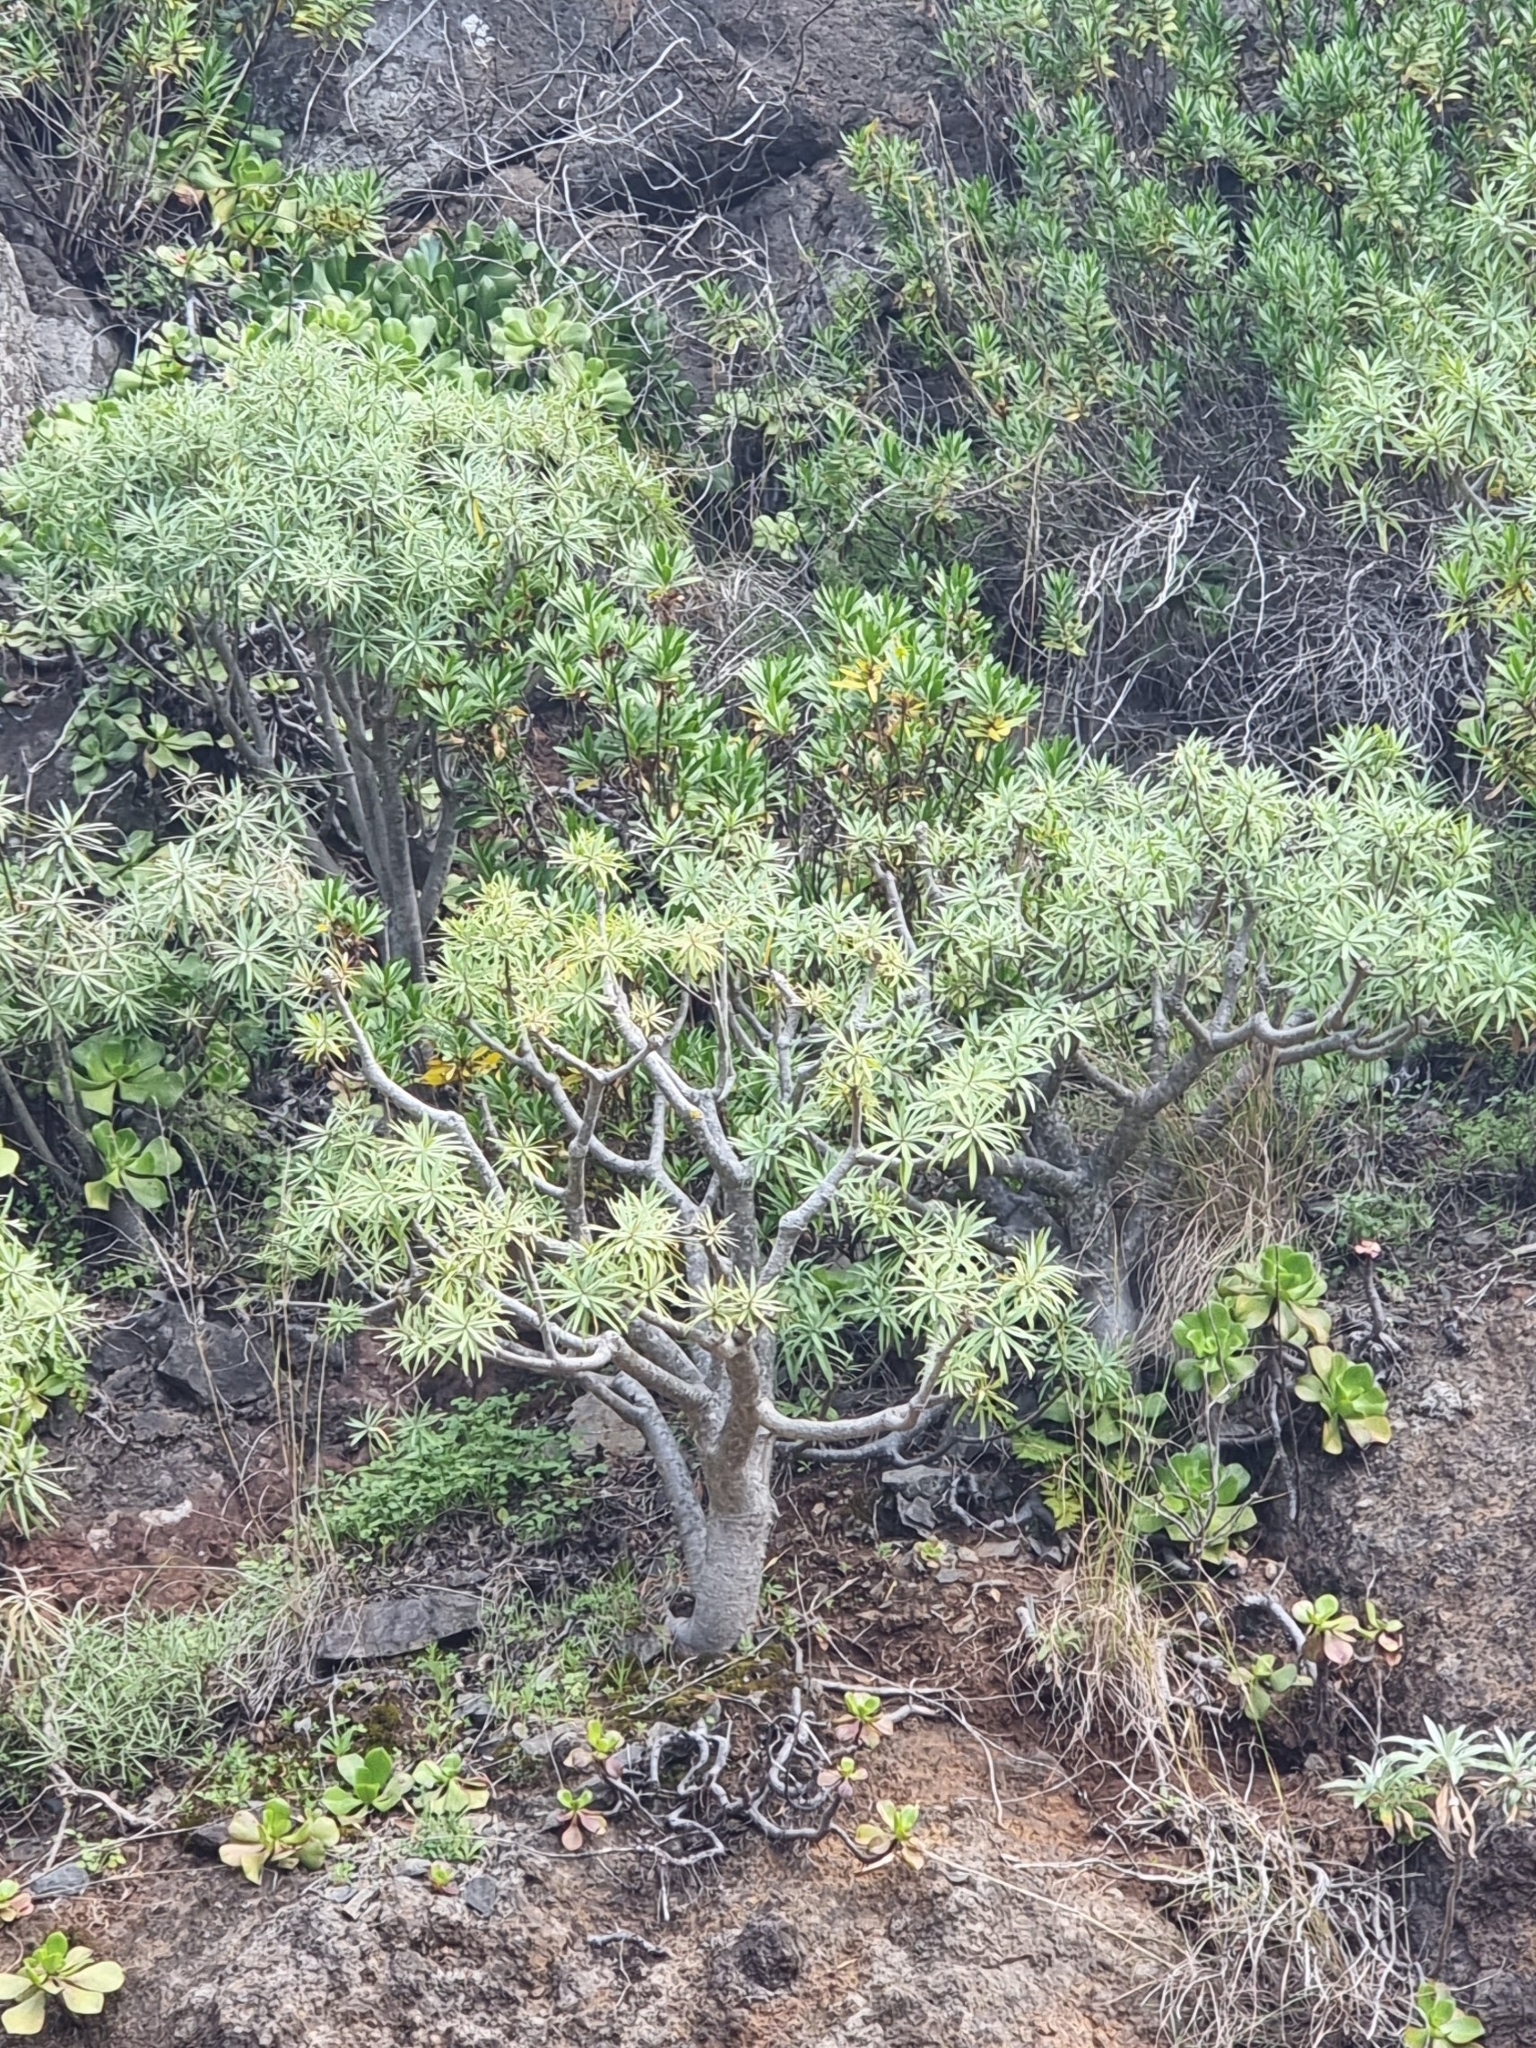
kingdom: Plantae
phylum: Tracheophyta
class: Magnoliopsida
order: Malpighiales
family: Euphorbiaceae
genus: Euphorbia
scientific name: Euphorbia piscatoria
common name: Fish-stunning spurge
